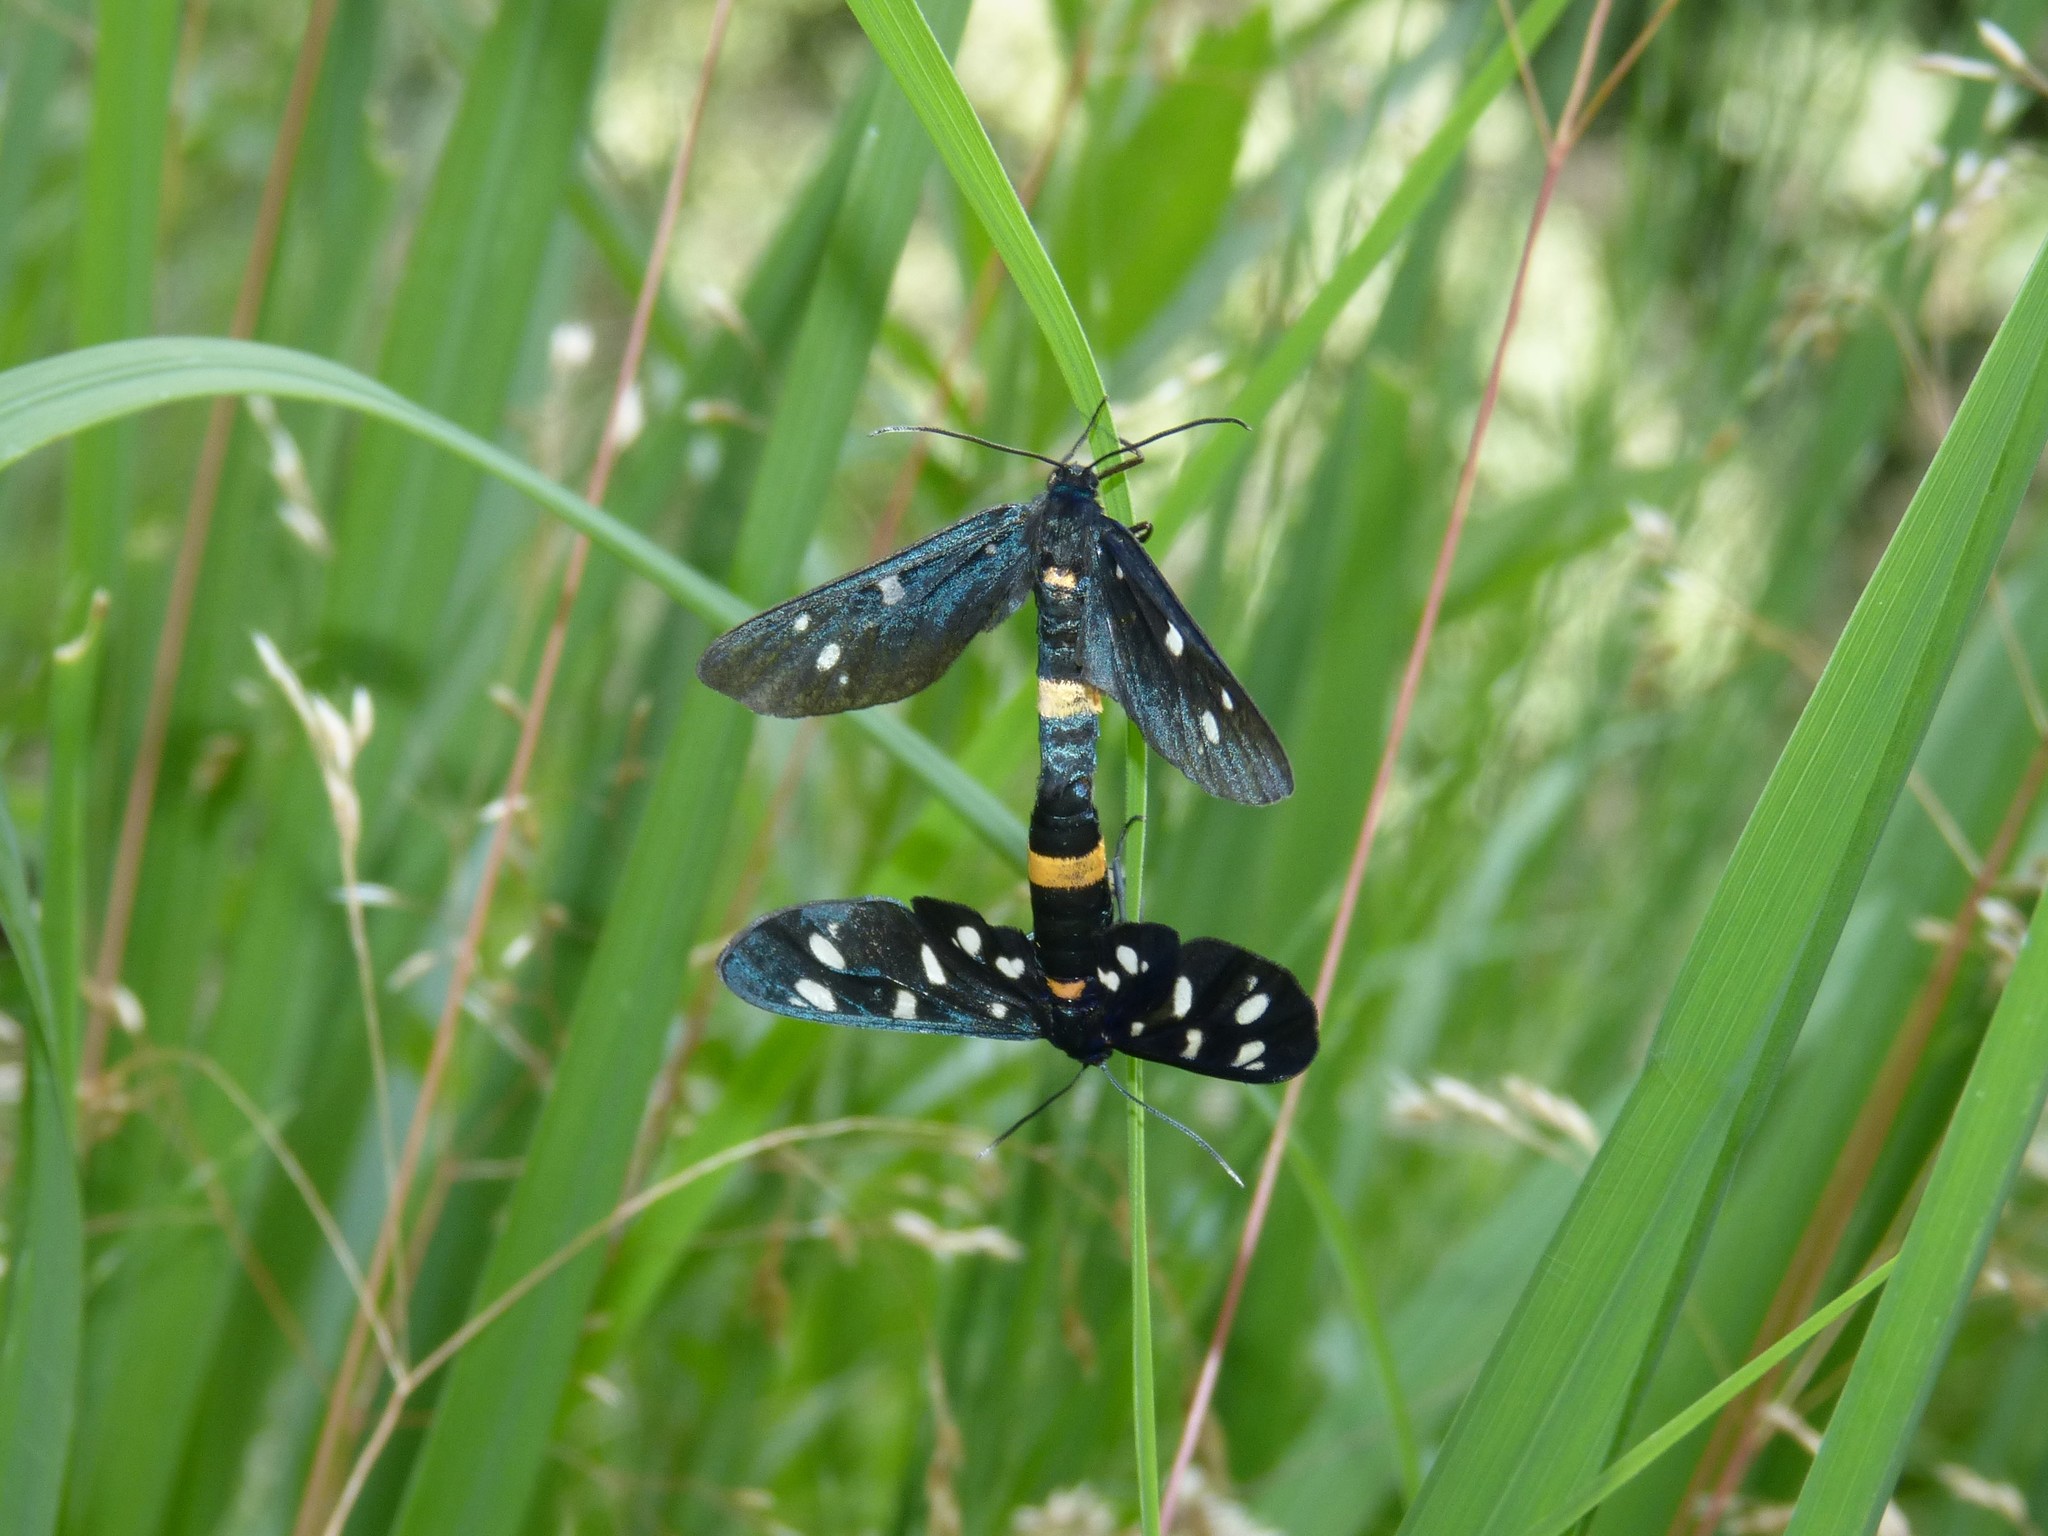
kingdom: Animalia
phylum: Arthropoda
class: Insecta
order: Lepidoptera
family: Erebidae
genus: Amata
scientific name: Amata phegea
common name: Nine-spotted
